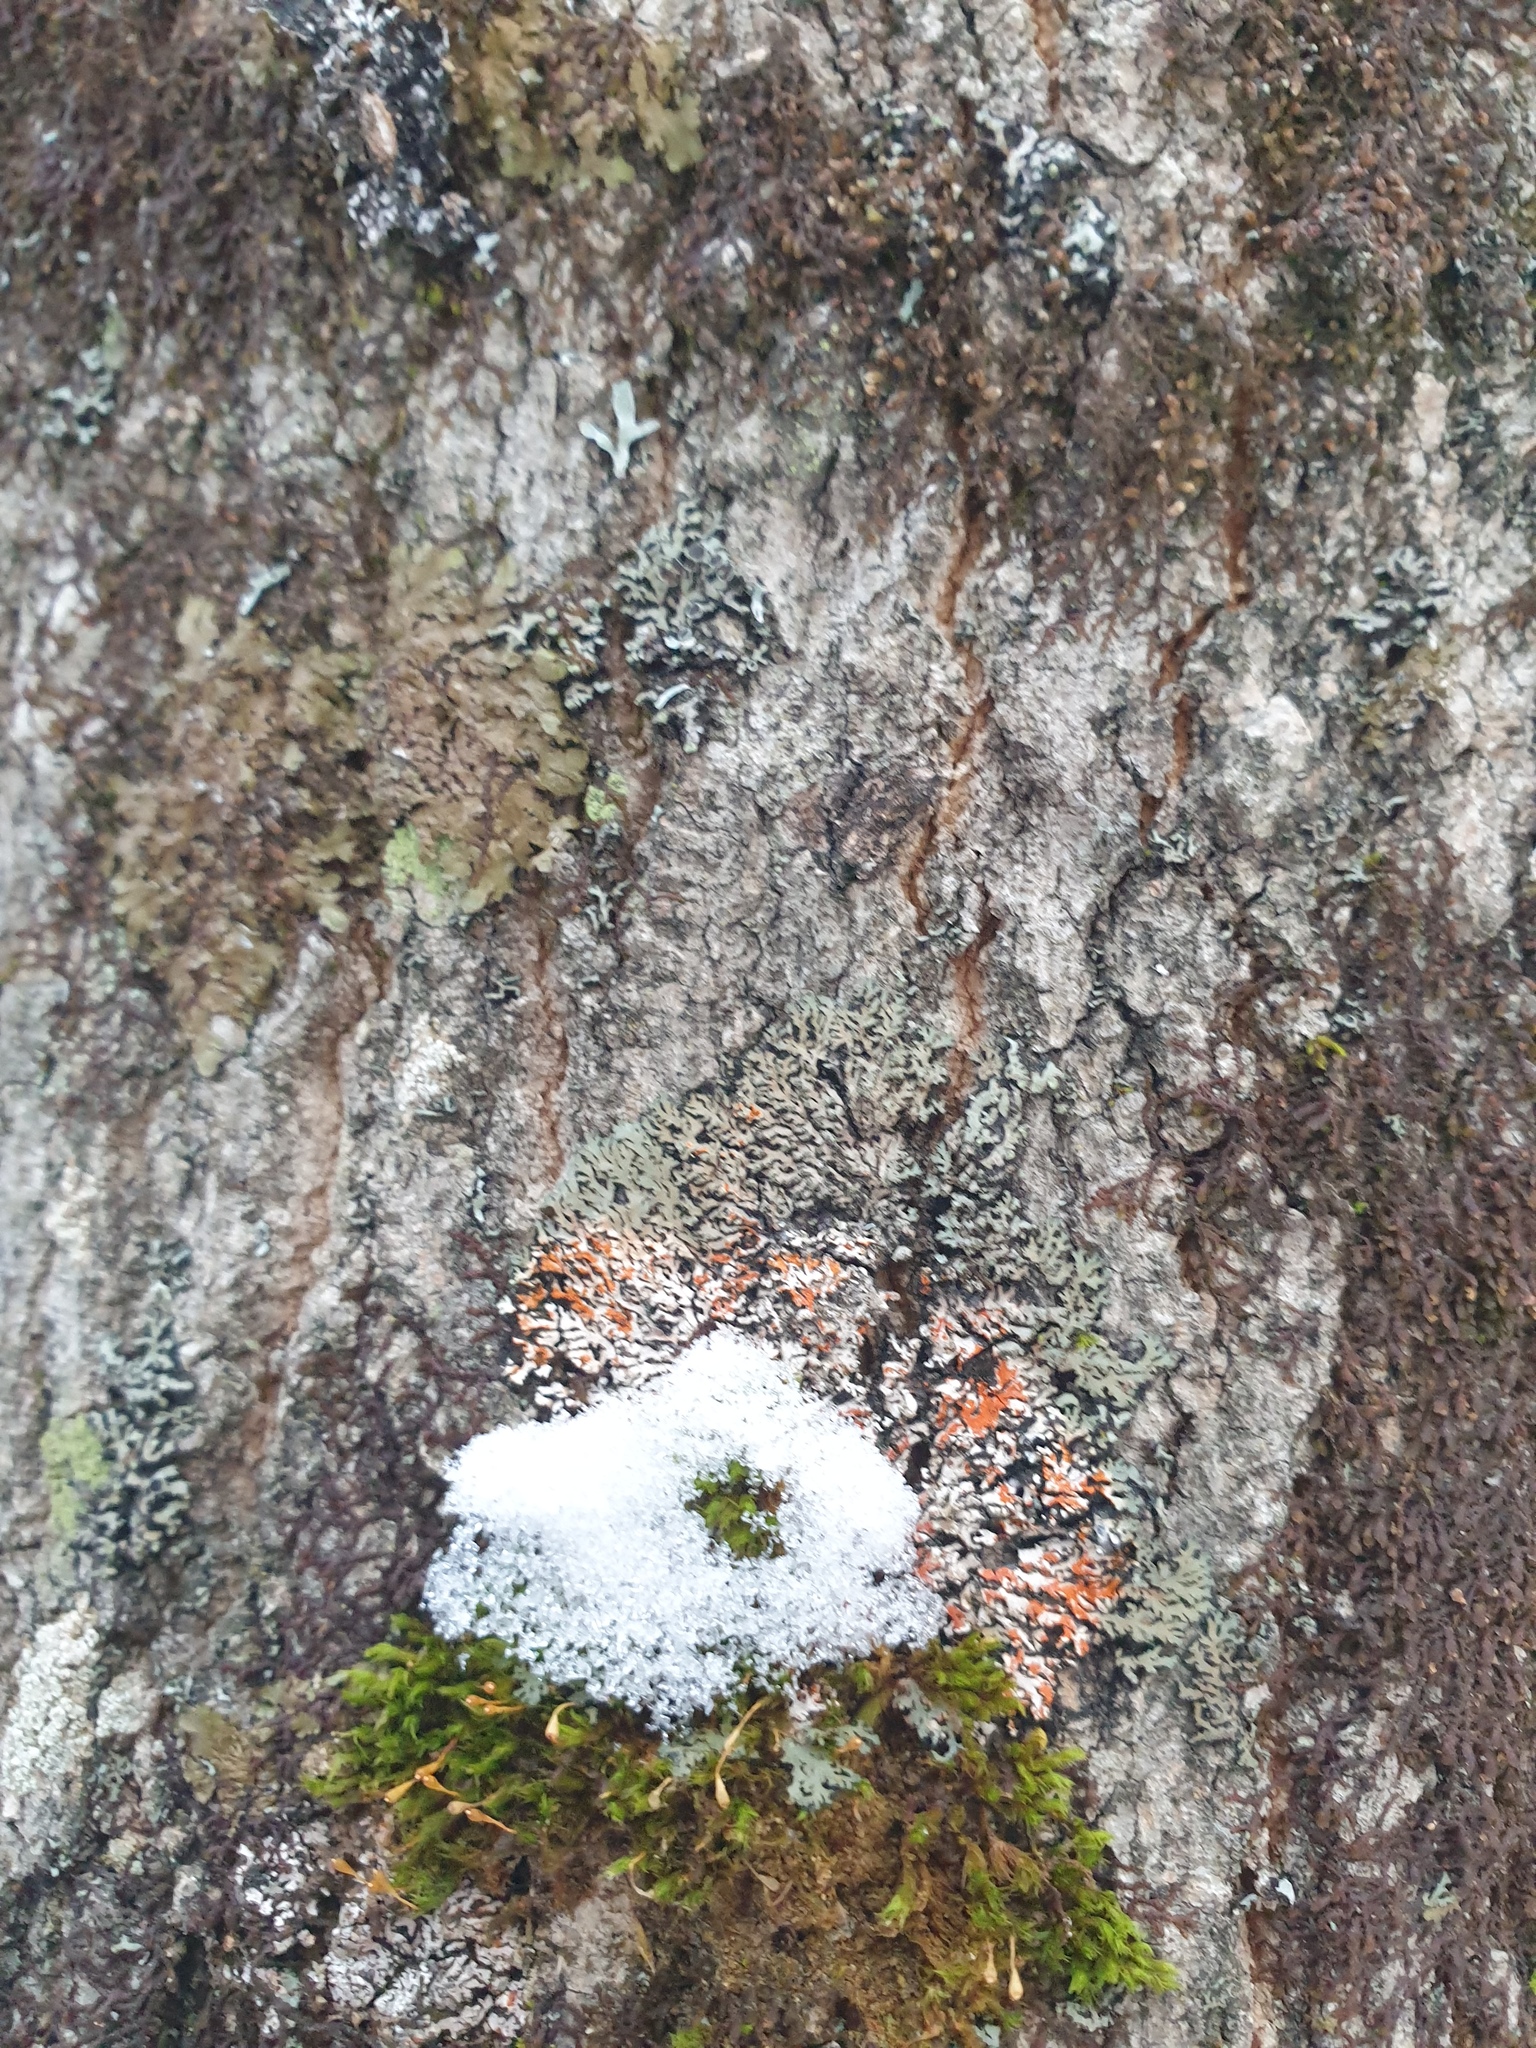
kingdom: Fungi
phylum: Ascomycota
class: Lecanoromycetes
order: Caliciales
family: Physciaceae
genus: Phaeophyscia
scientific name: Phaeophyscia rubropulchra
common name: Orange-cored shadow lichen
